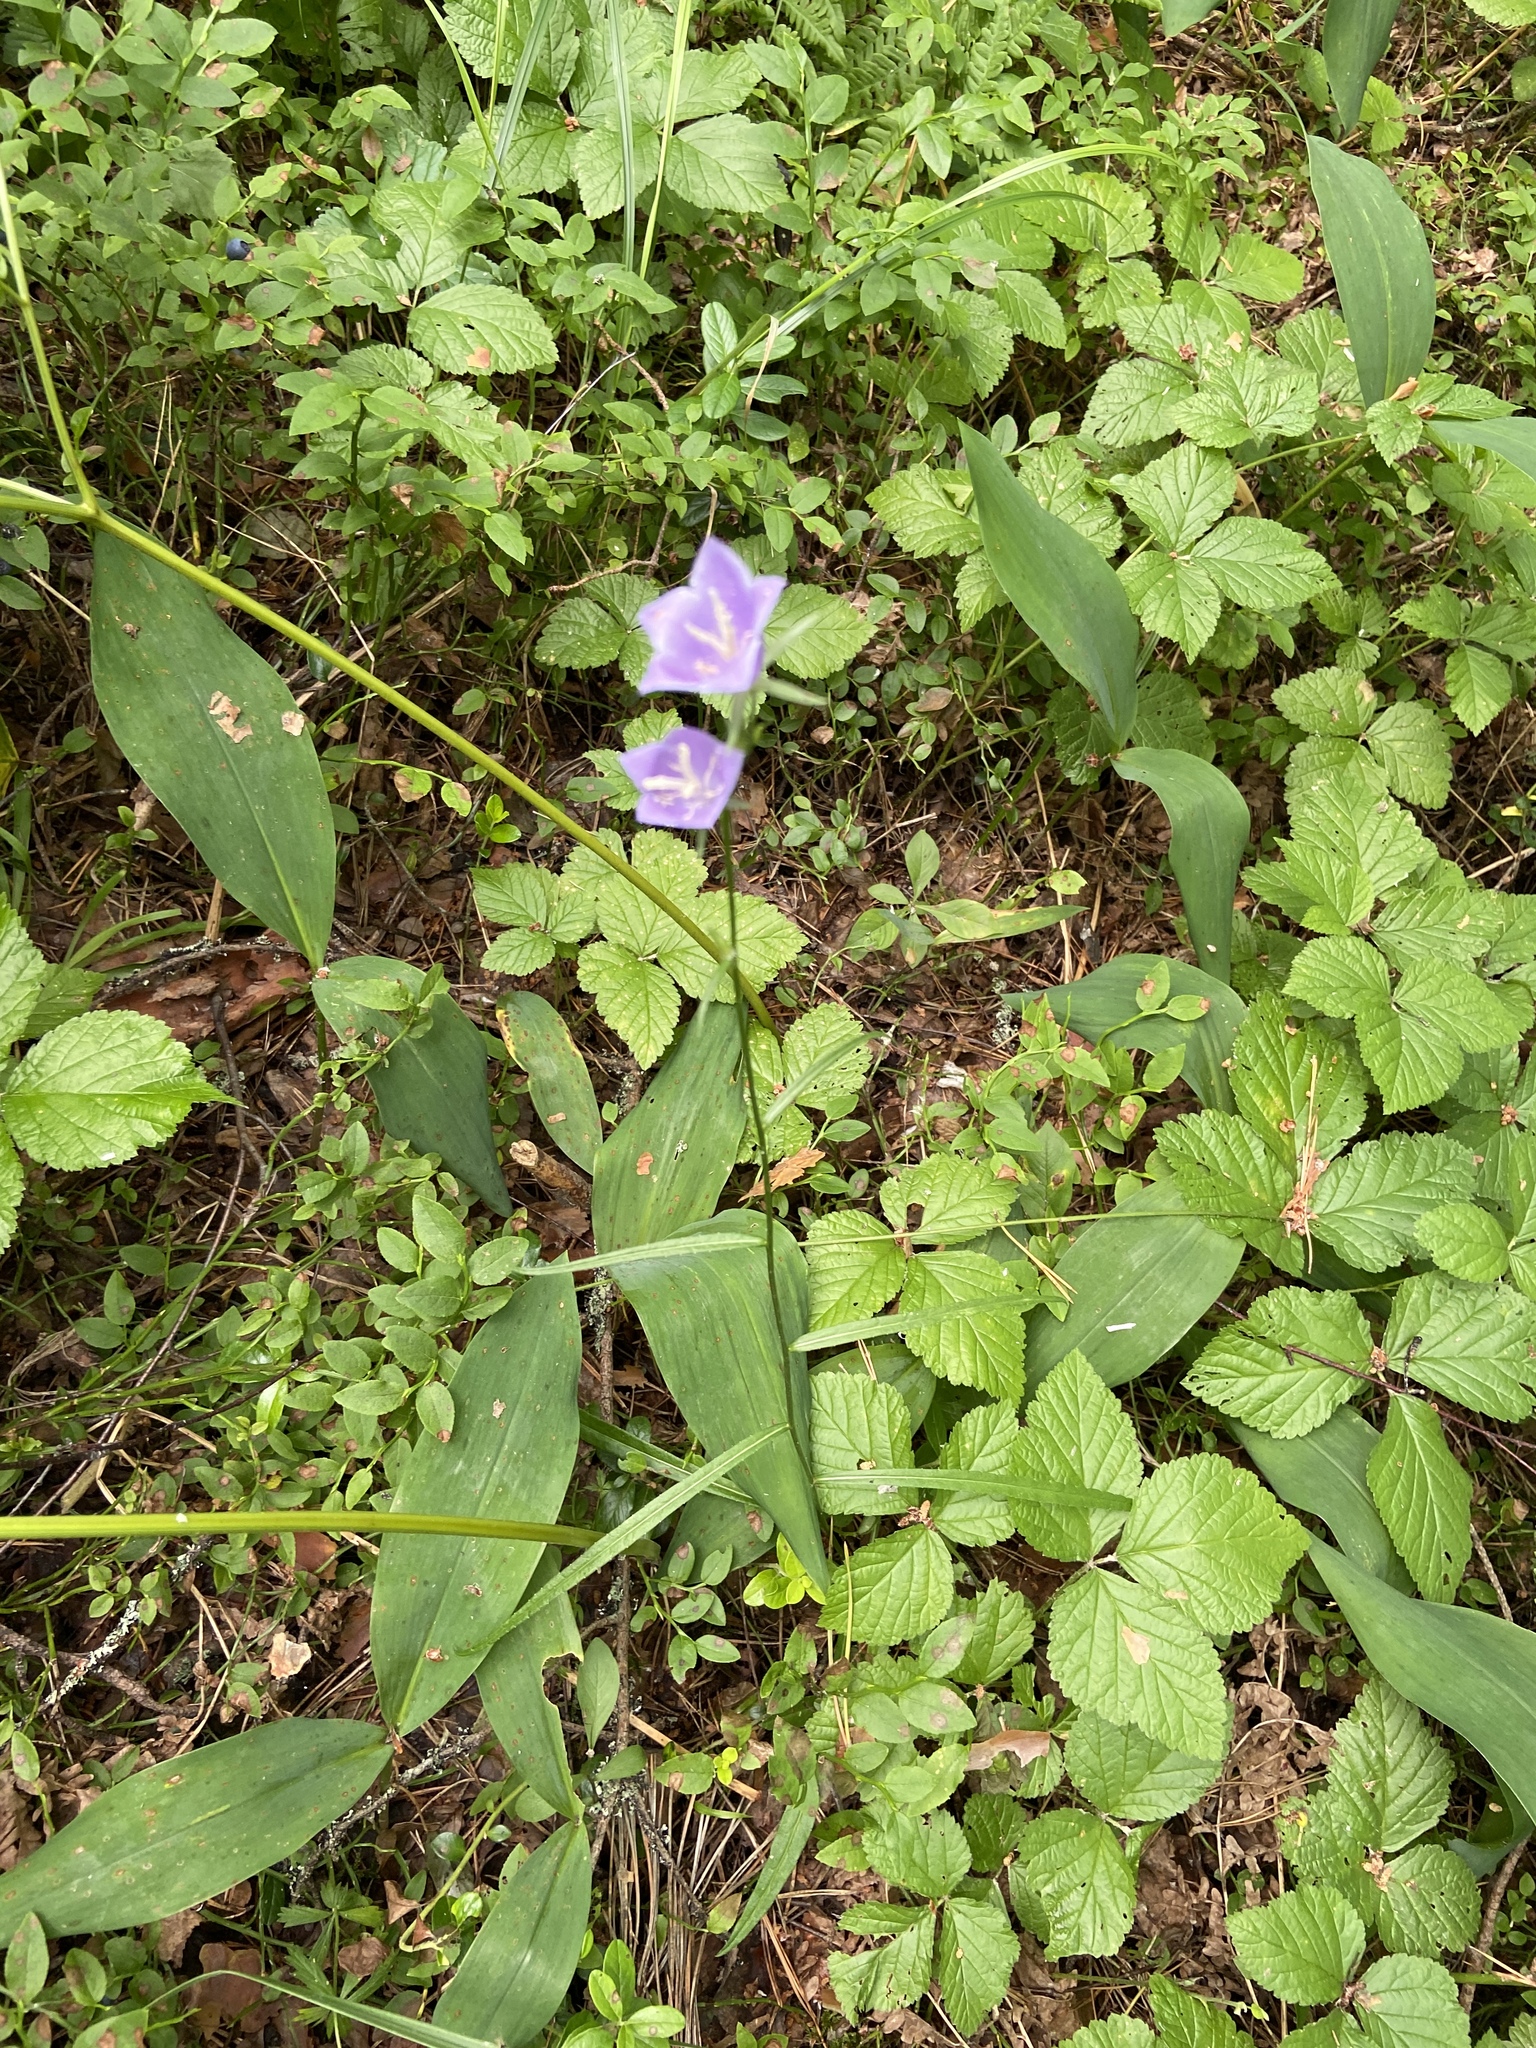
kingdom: Plantae
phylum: Tracheophyta
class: Magnoliopsida
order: Asterales
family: Campanulaceae
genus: Campanula
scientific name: Campanula persicifolia
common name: Peach-leaved bellflower
